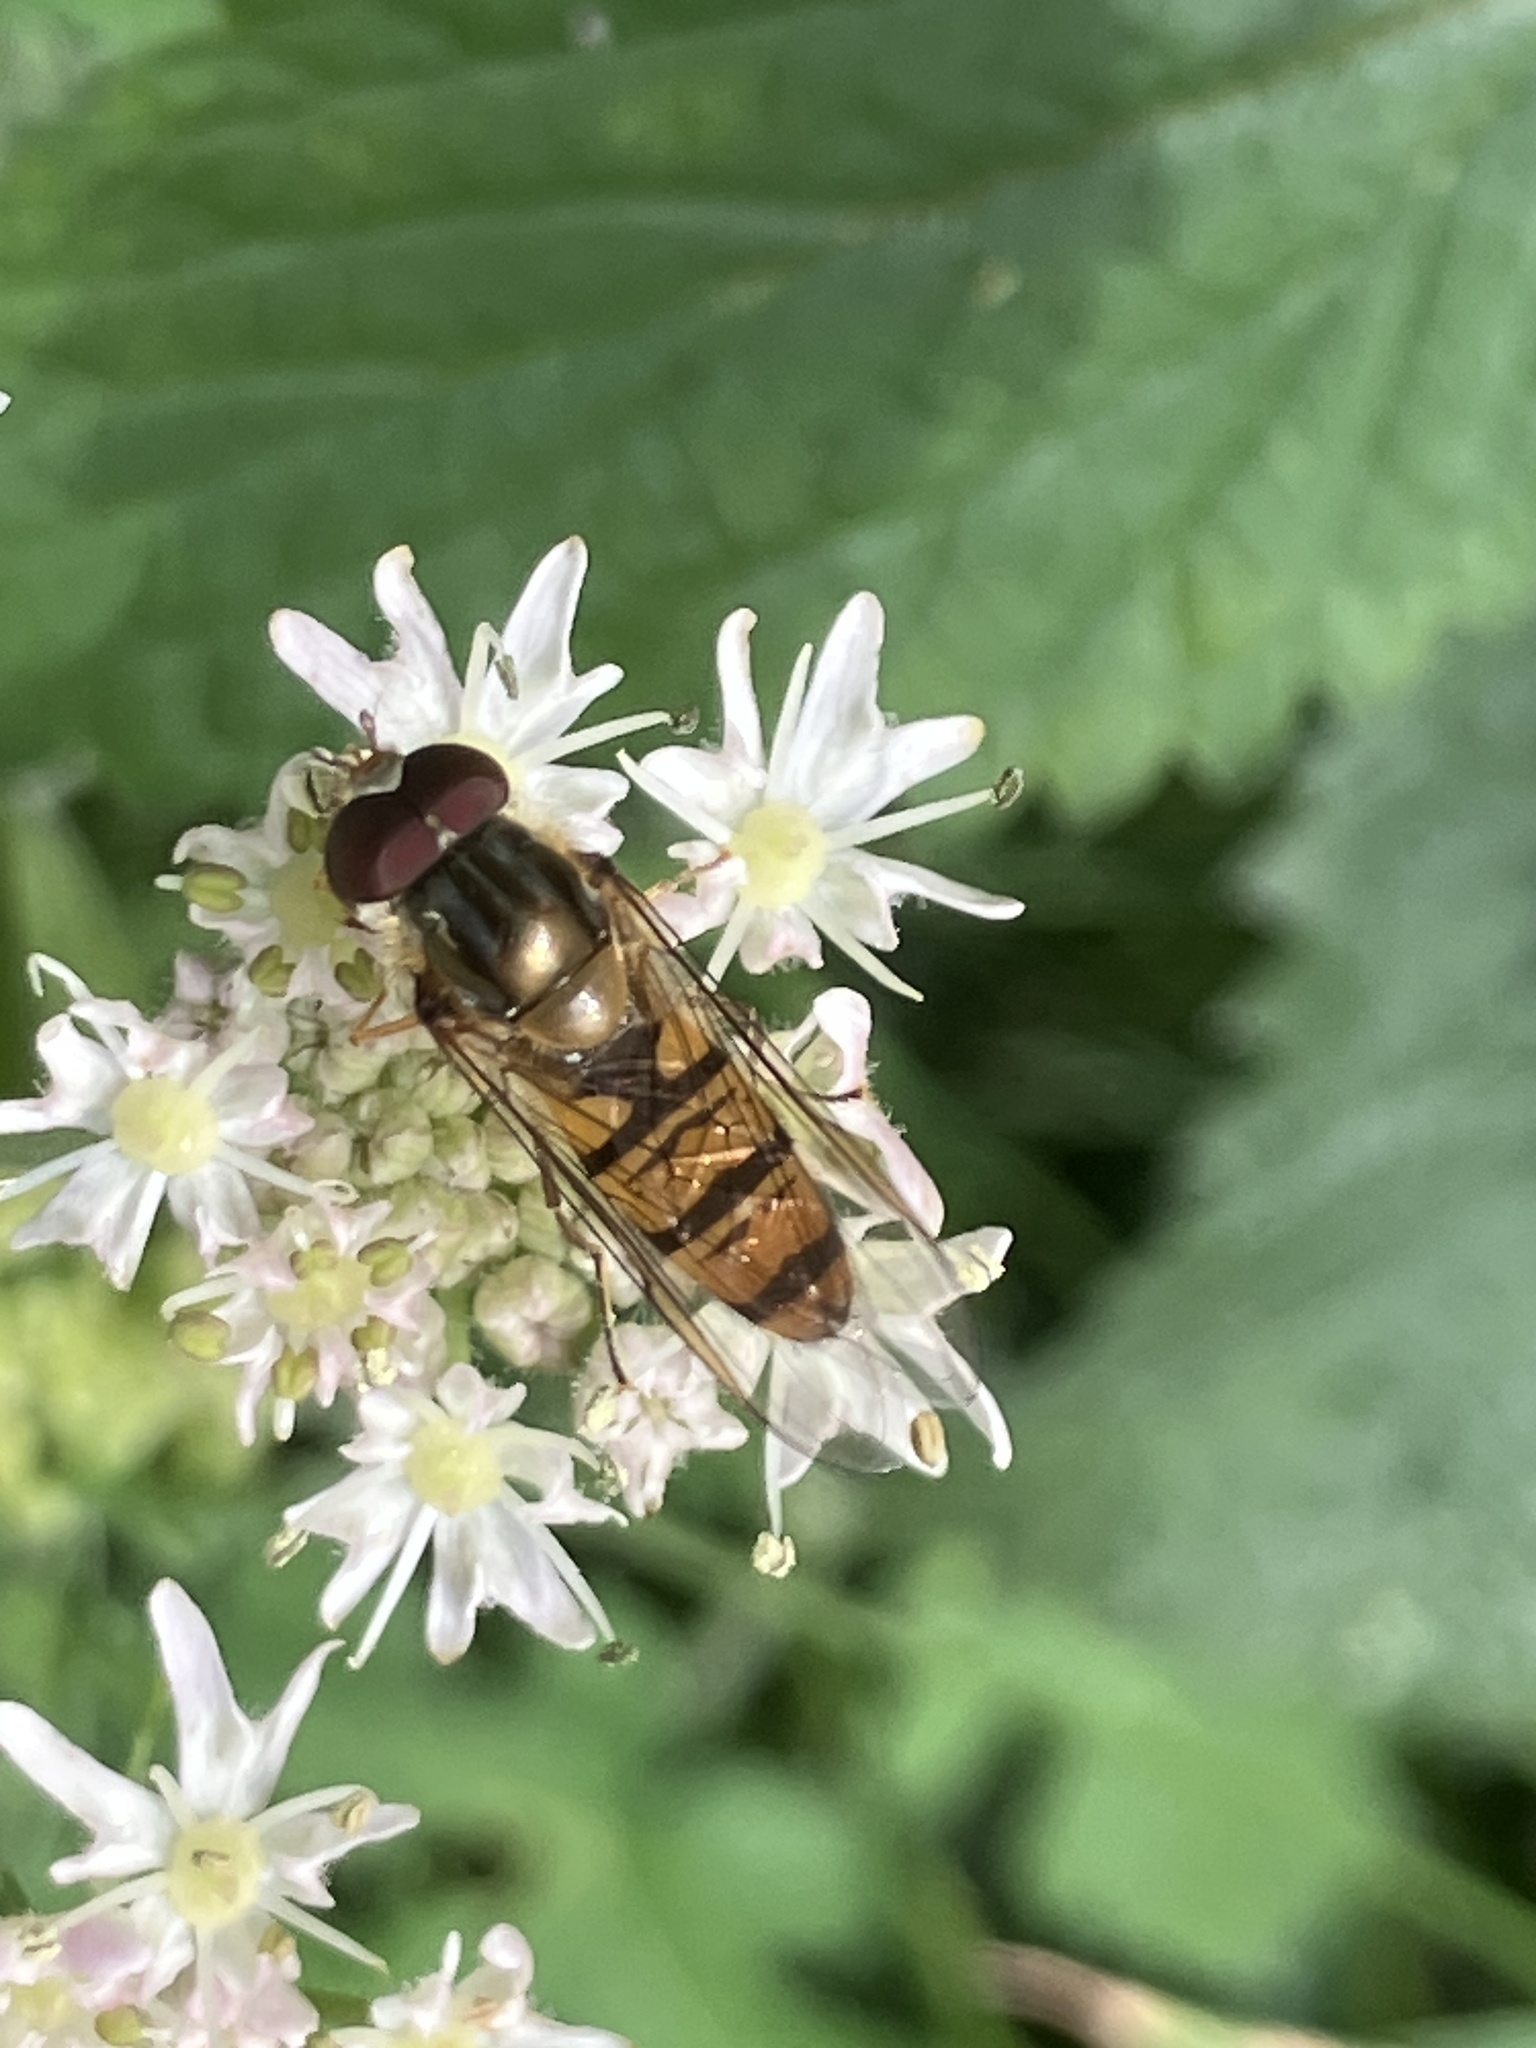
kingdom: Animalia
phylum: Arthropoda
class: Insecta
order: Diptera
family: Syrphidae
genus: Episyrphus
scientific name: Episyrphus balteatus
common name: Marmalade hoverfly
